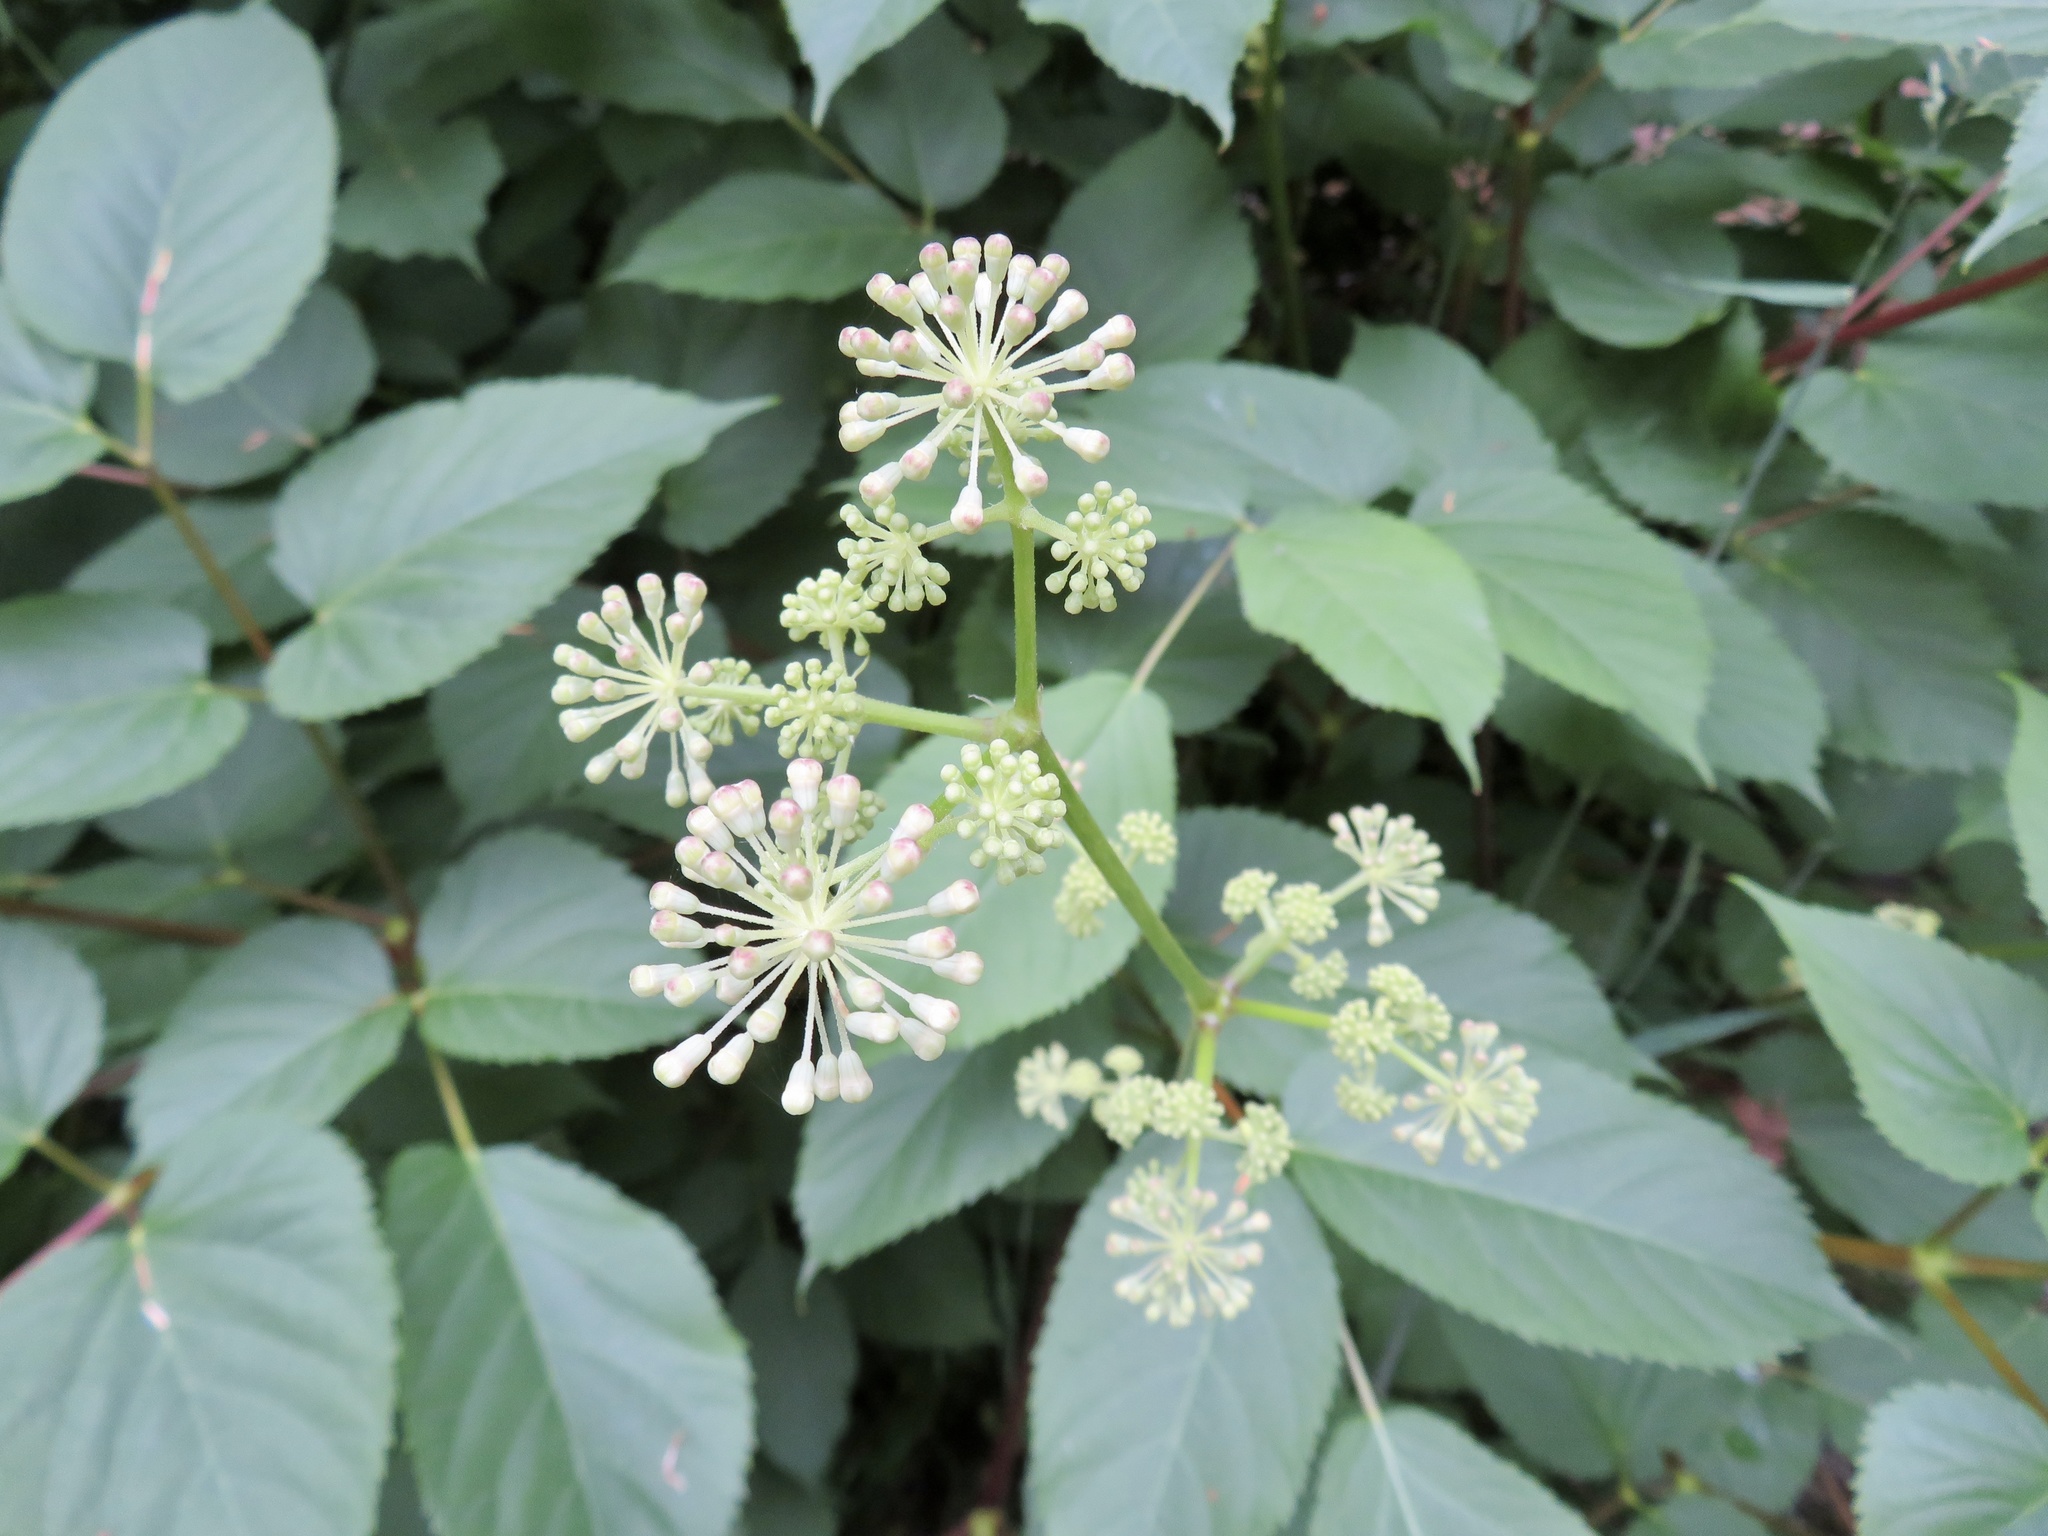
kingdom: Plantae
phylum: Tracheophyta
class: Magnoliopsida
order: Apiales
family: Araliaceae
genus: Aralia
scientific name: Aralia californica
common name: California-ginseng
